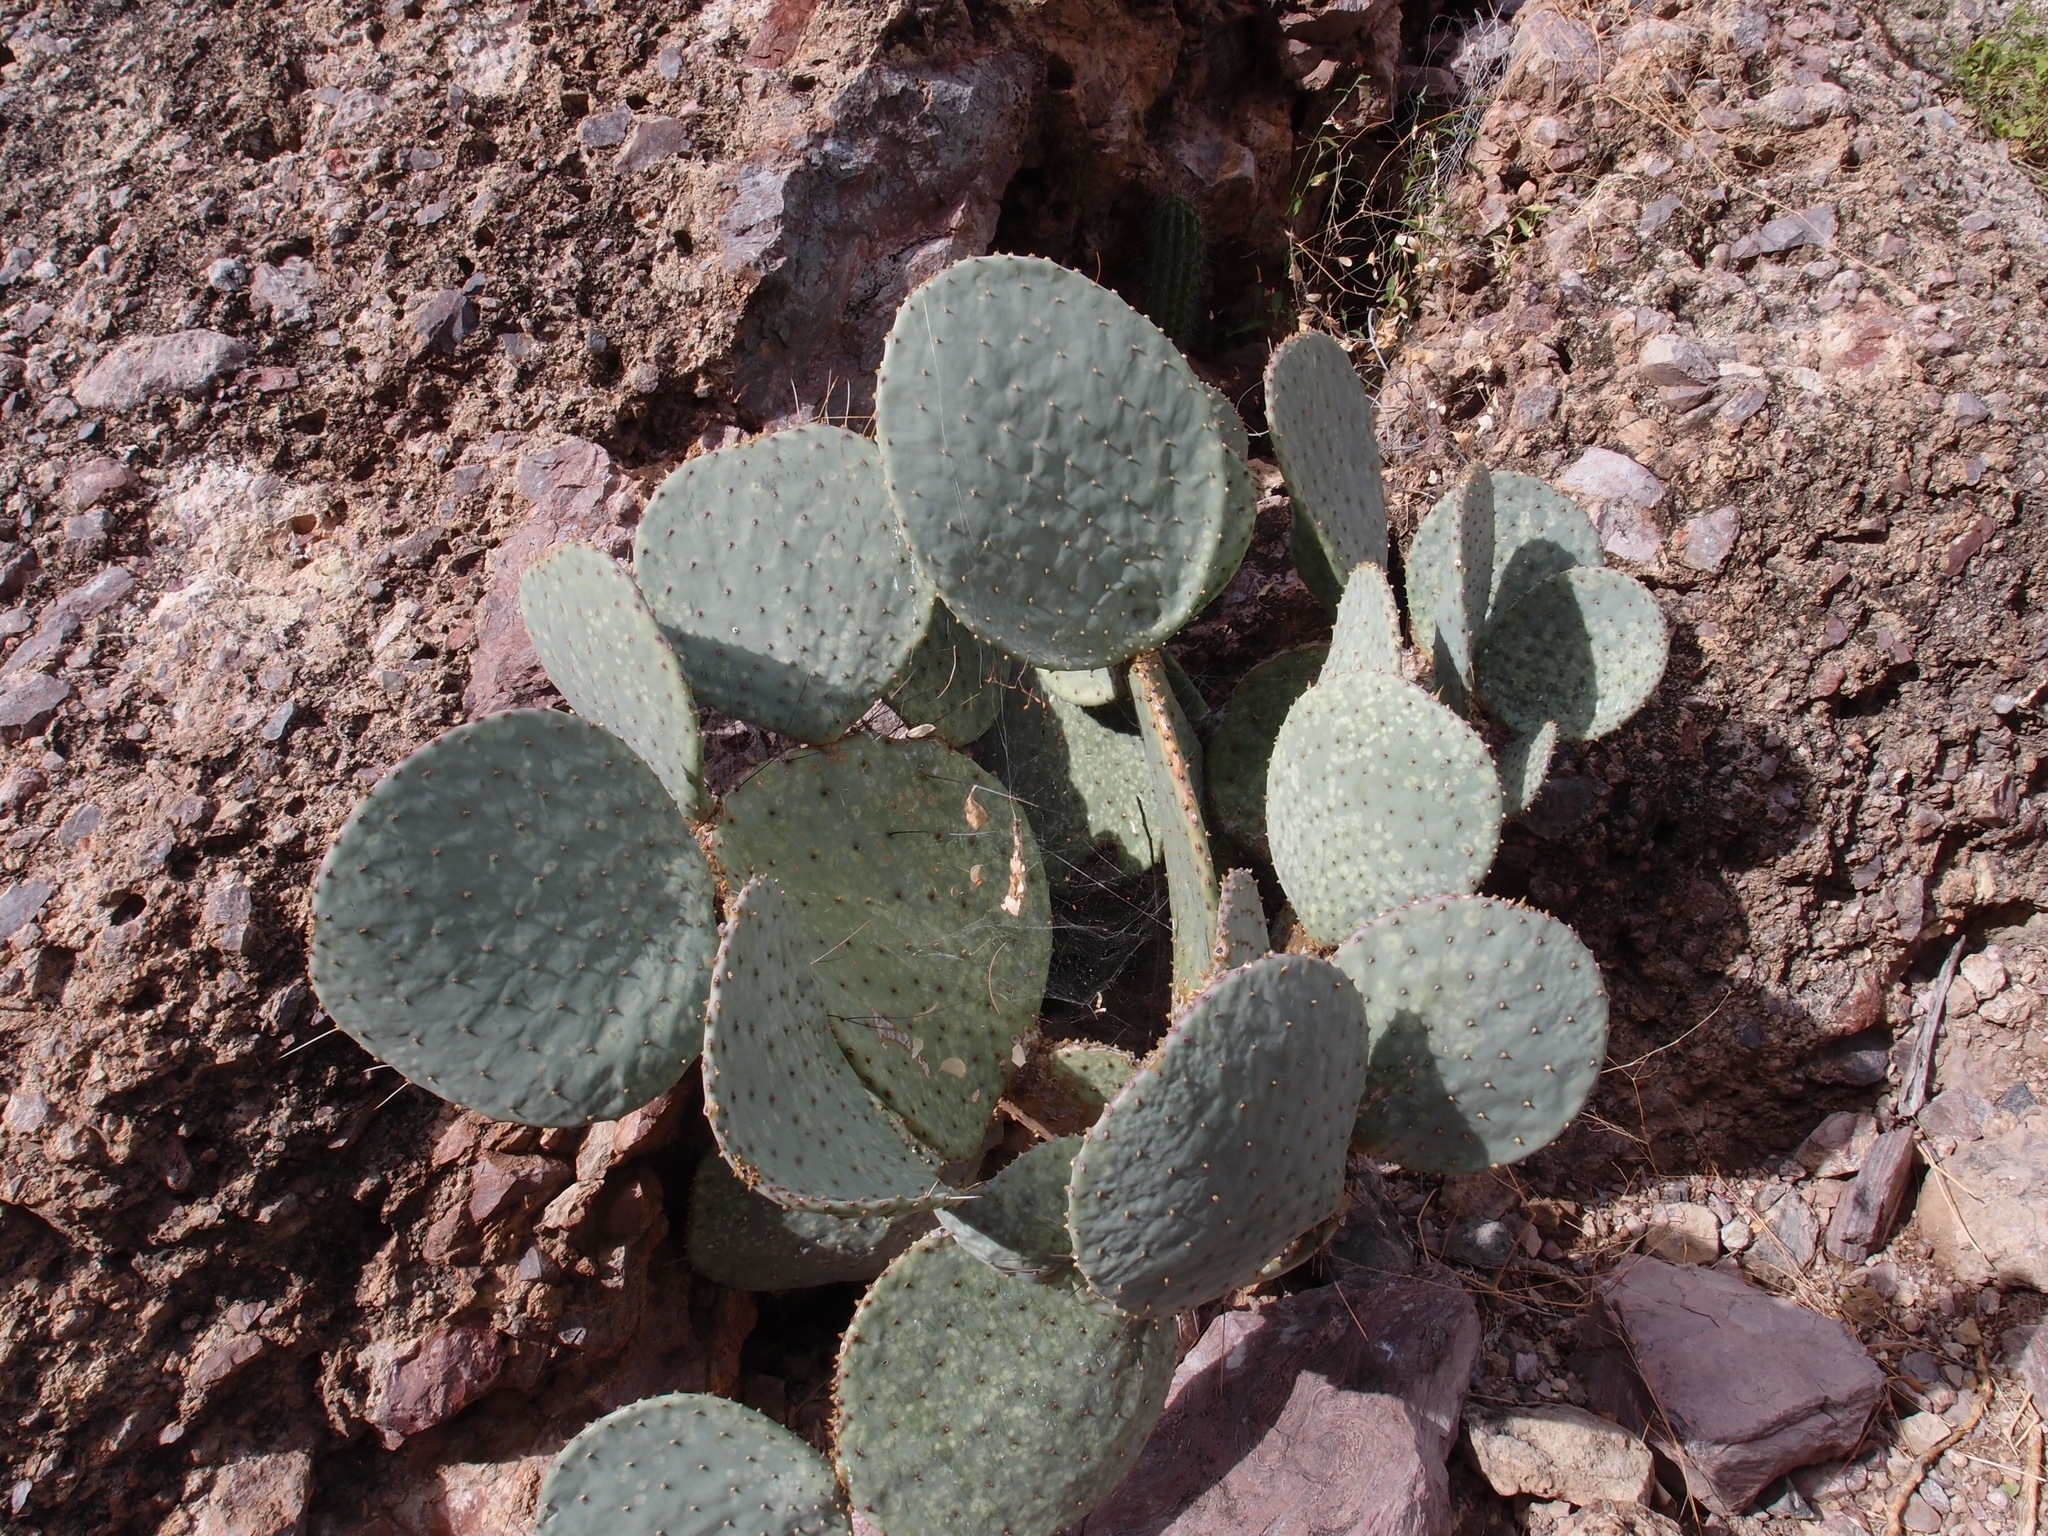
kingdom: Plantae
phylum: Tracheophyta
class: Magnoliopsida
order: Caryophyllales
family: Cactaceae
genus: Opuntia
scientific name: Opuntia gosseliniana
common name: Violet prickly-pear
